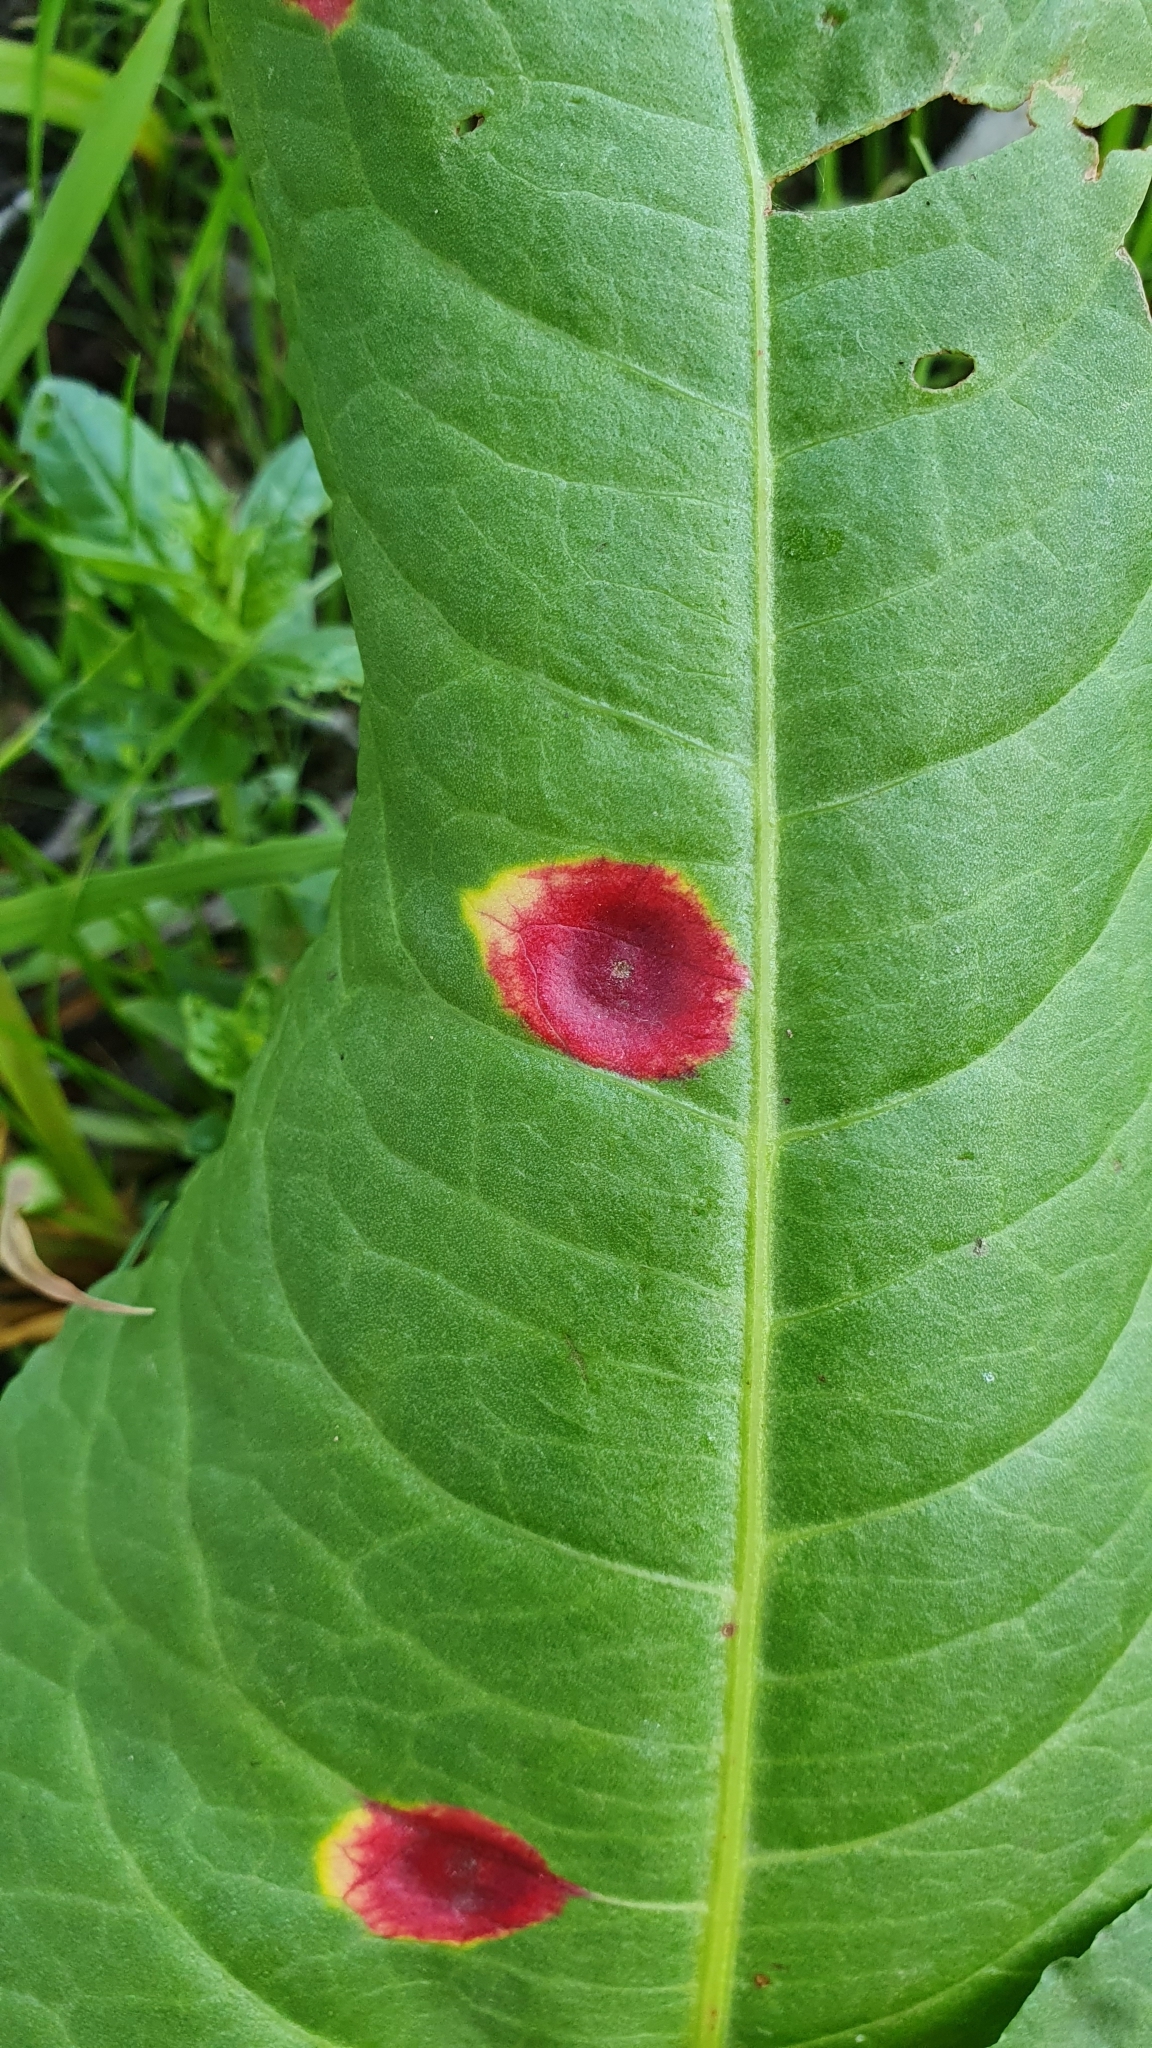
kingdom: Fungi
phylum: Basidiomycota
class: Pucciniomycetes
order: Pucciniales
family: Pucciniaceae
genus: Puccinia
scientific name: Puccinia phragmitis
